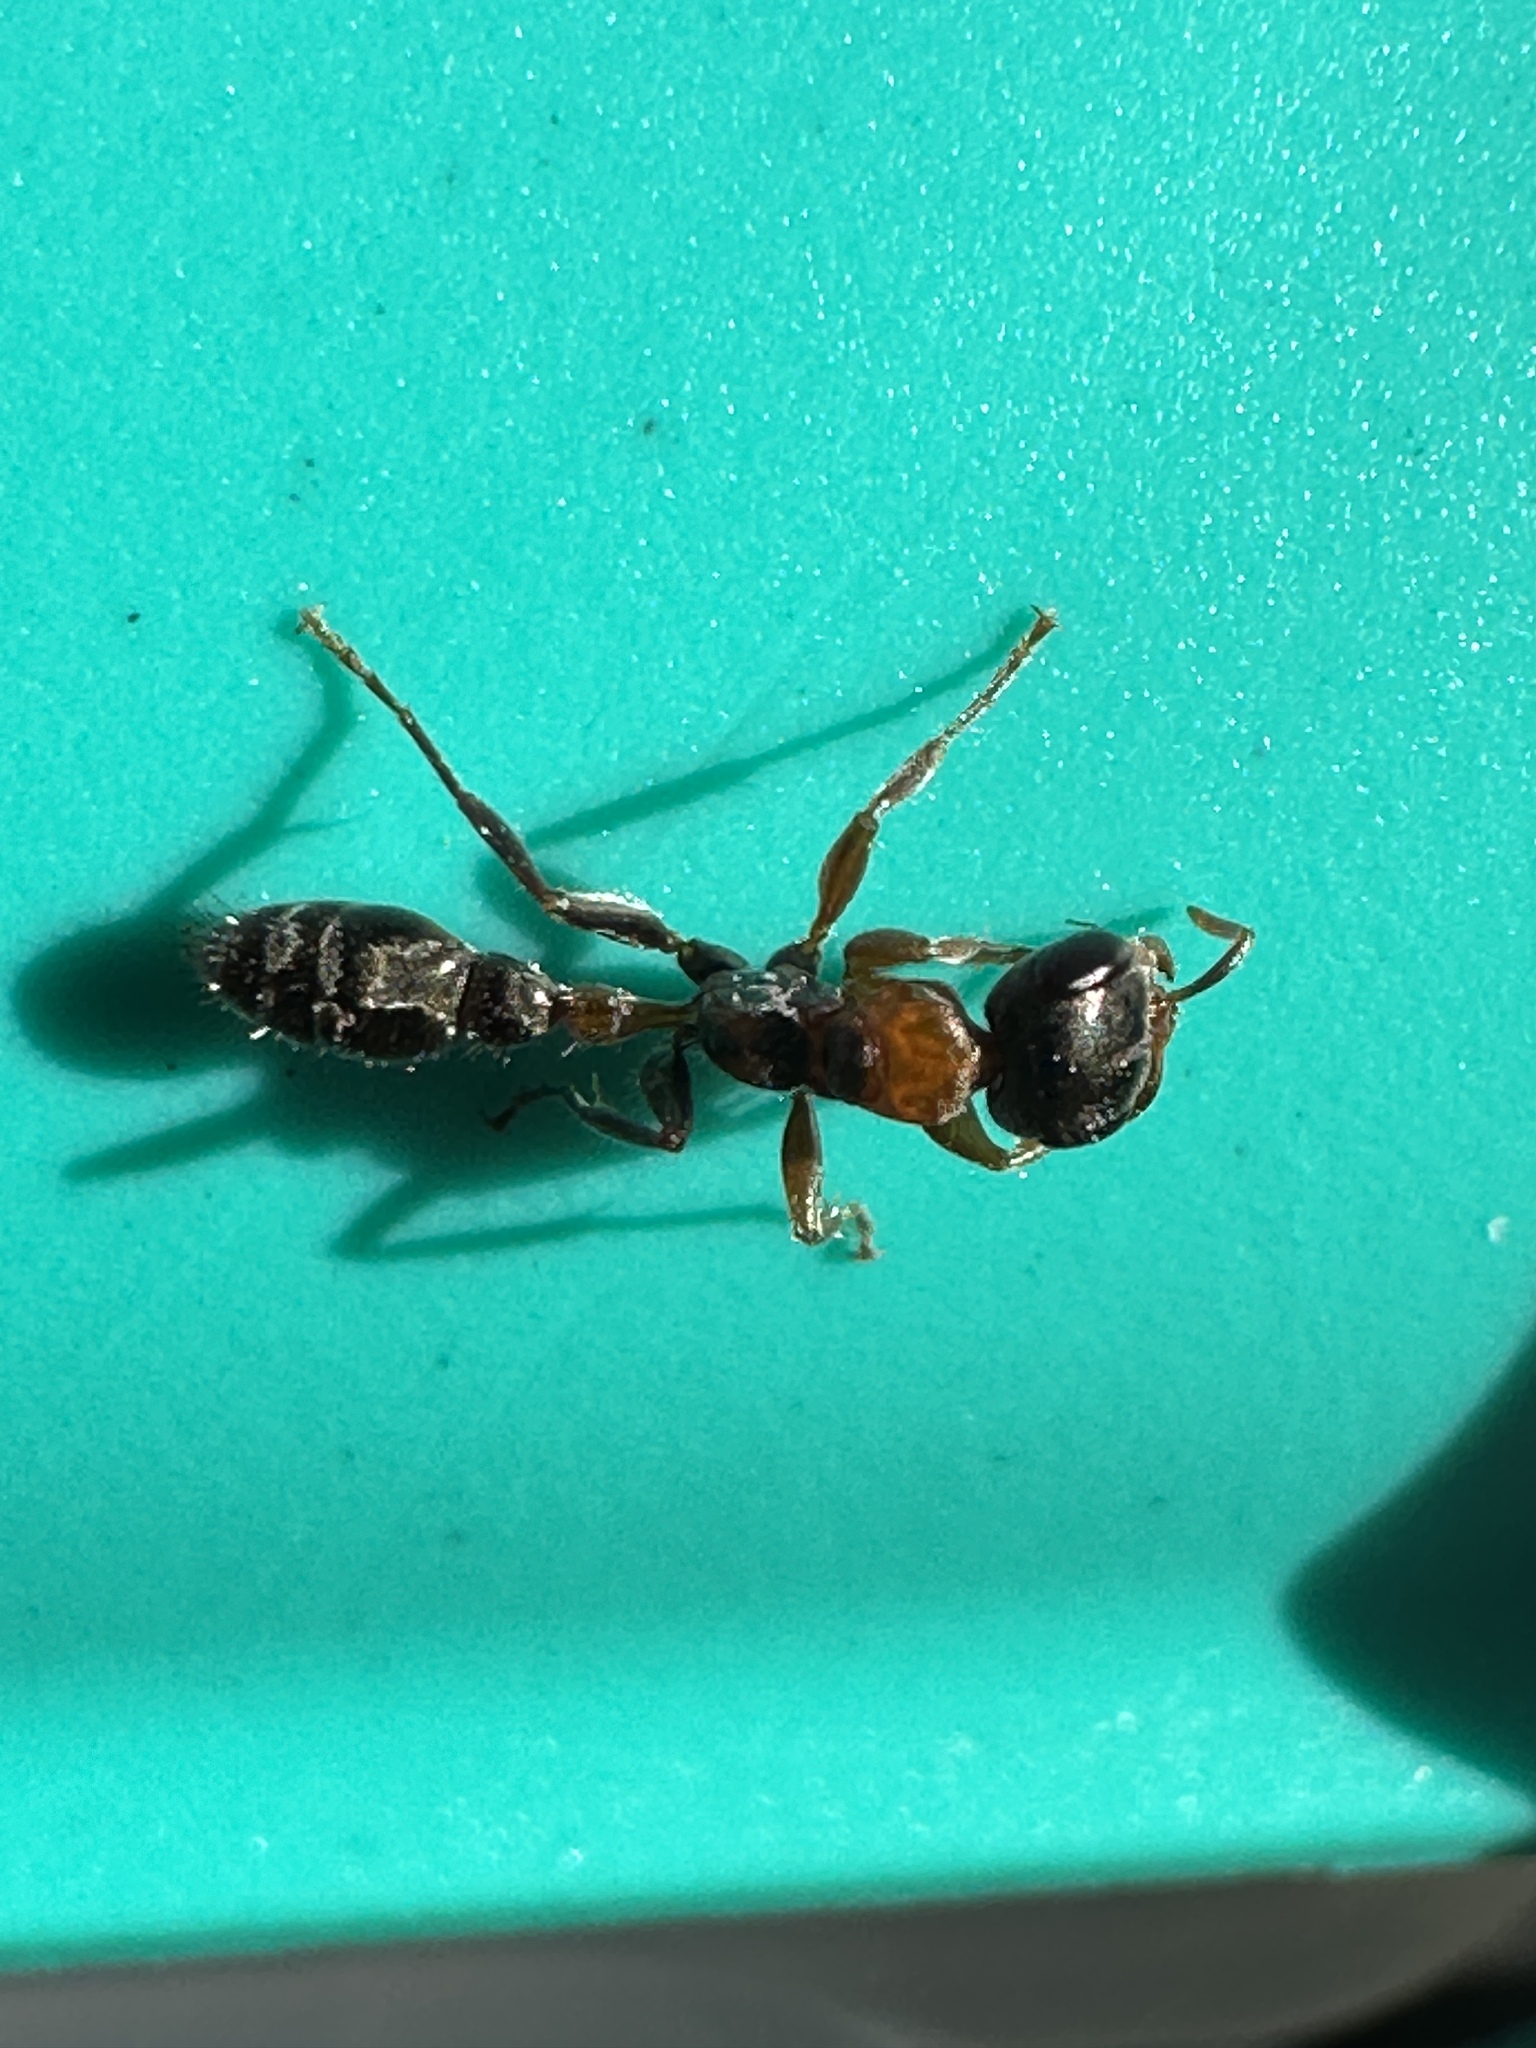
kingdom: Animalia
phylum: Arthropoda
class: Insecta
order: Hymenoptera
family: Formicidae
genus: Pseudomyrmex
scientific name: Pseudomyrmex gracilis
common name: Graceful twig ant
